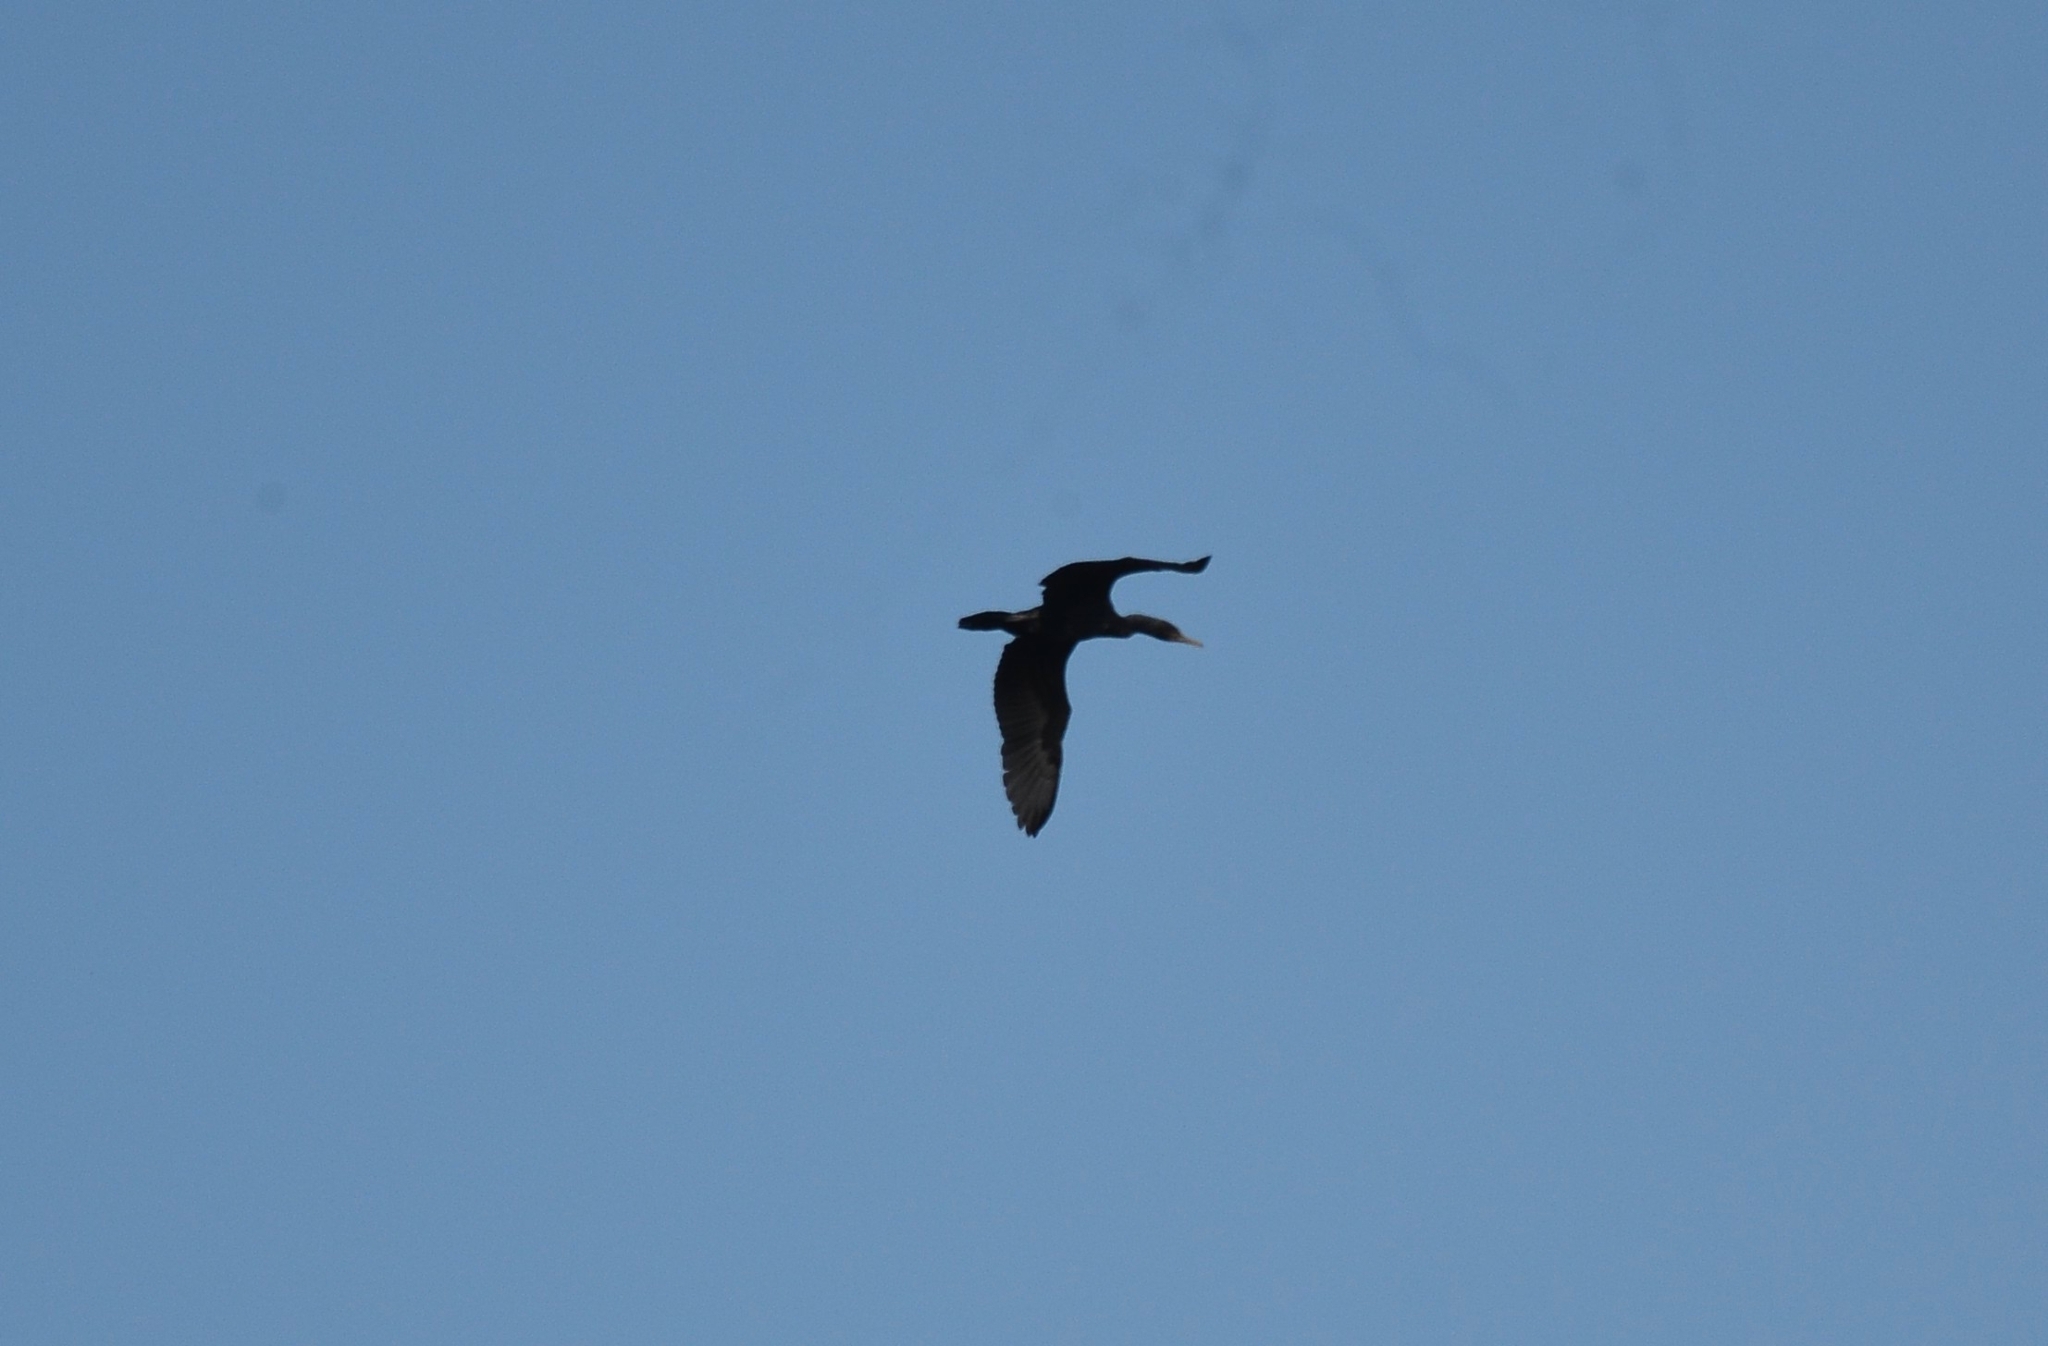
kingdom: Animalia
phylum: Chordata
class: Aves
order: Suliformes
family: Phalacrocoracidae
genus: Phalacrocorax
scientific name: Phalacrocorax fuscicollis
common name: Indian cormorant
